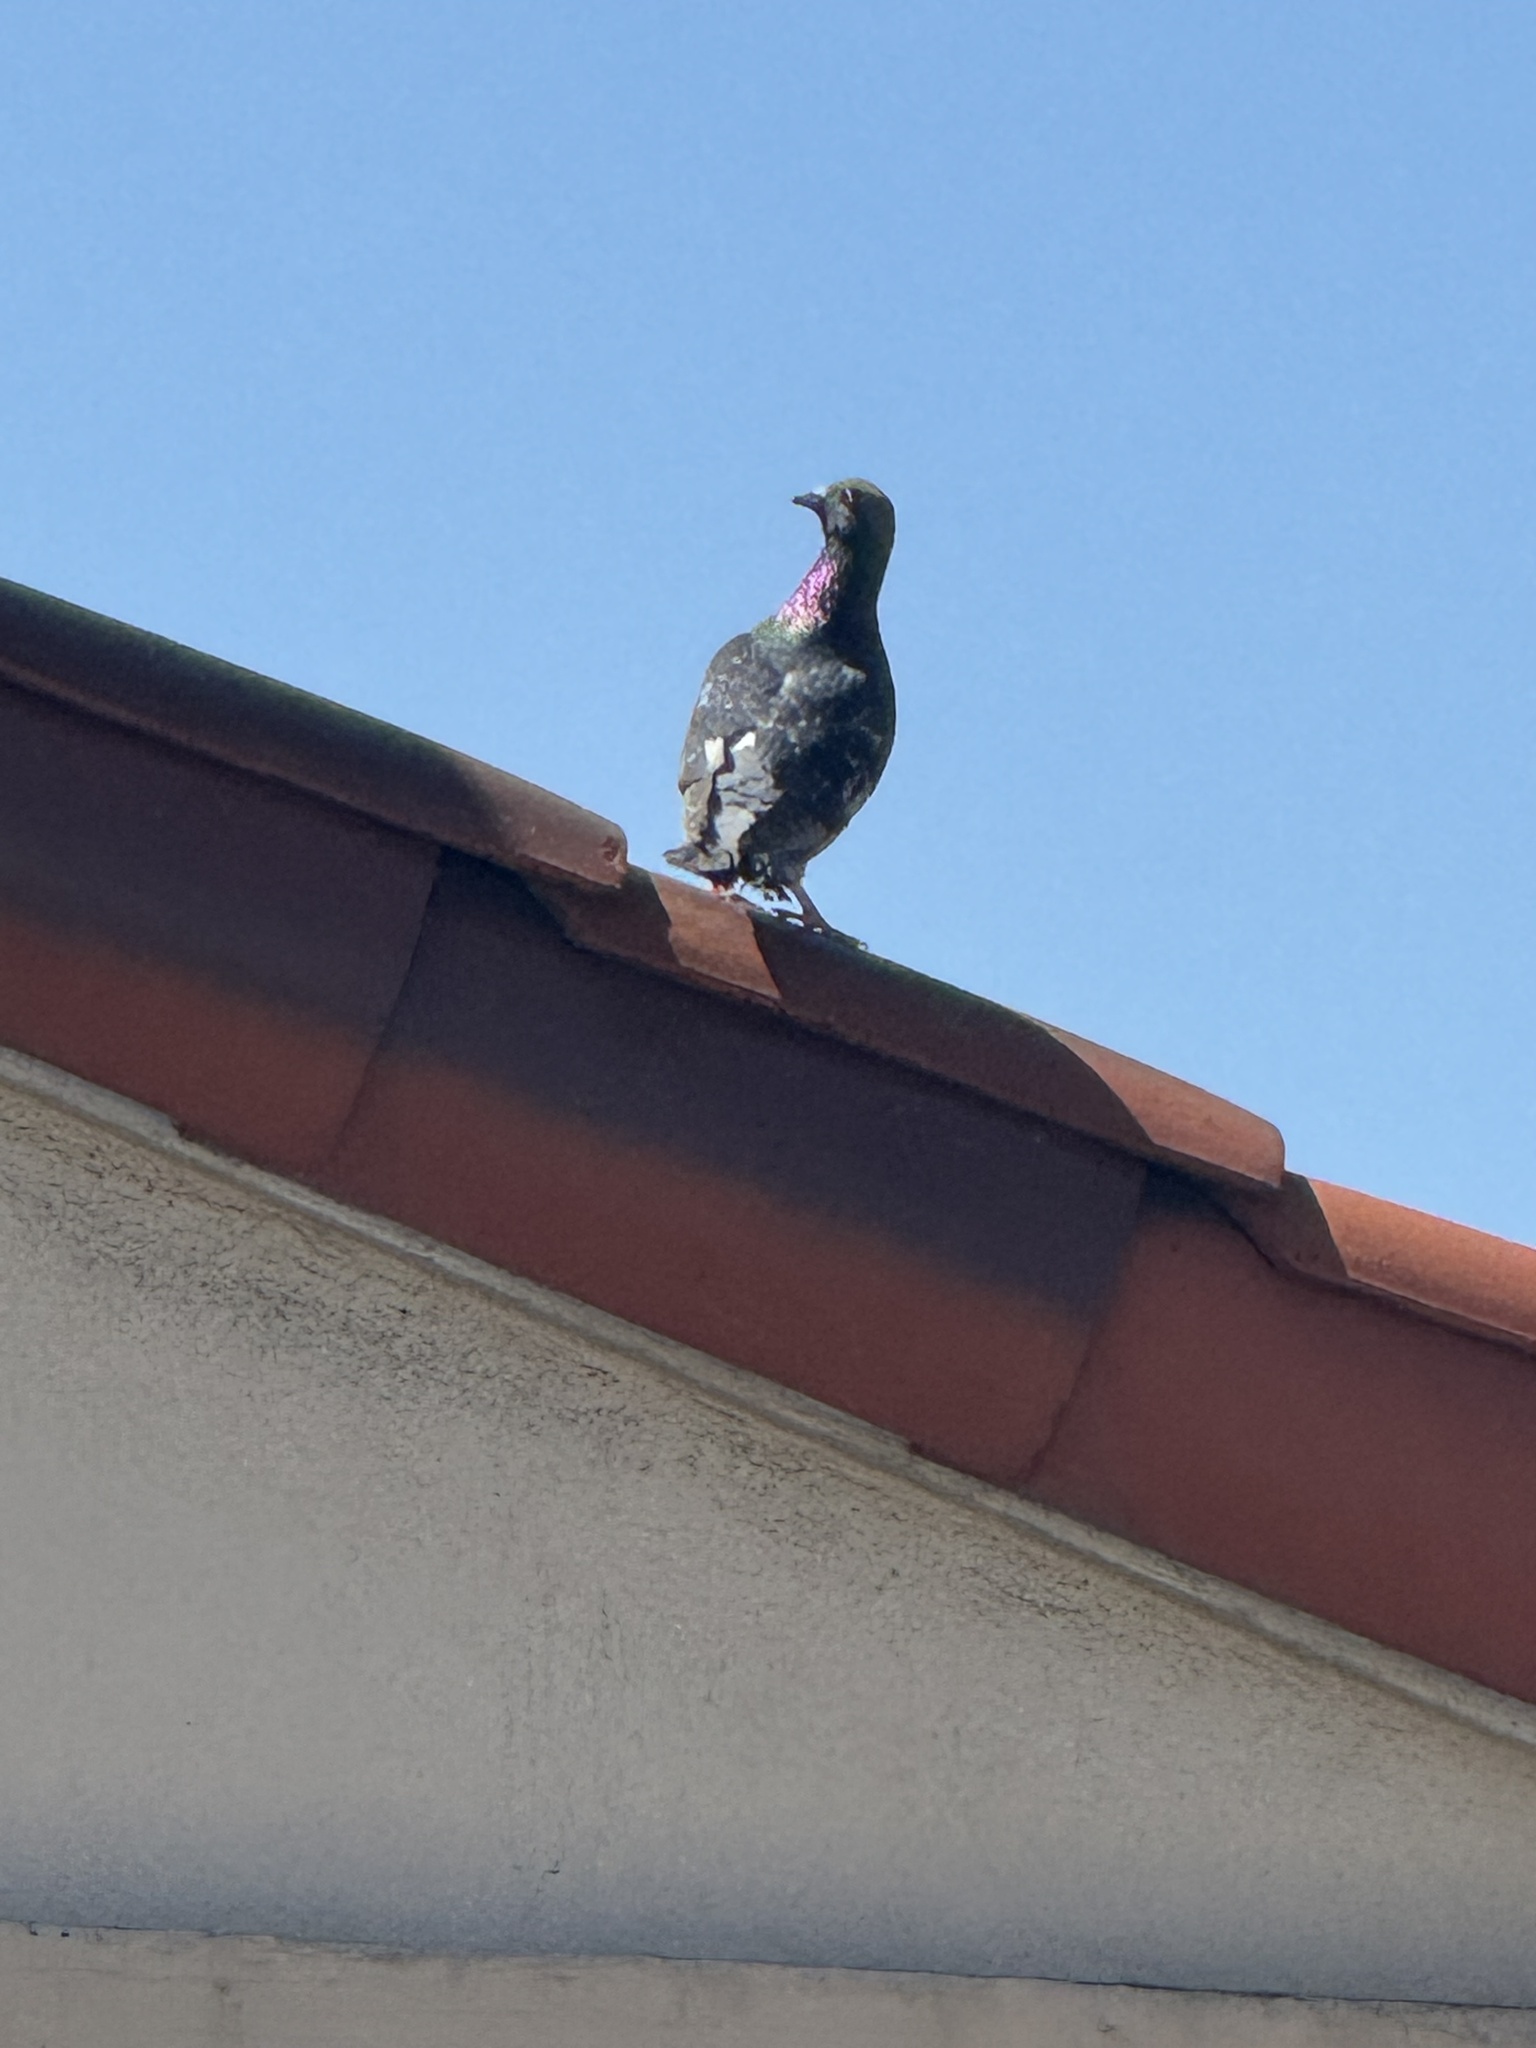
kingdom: Animalia
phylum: Chordata
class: Aves
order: Columbiformes
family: Columbidae
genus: Columba
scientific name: Columba livia
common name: Rock pigeon
